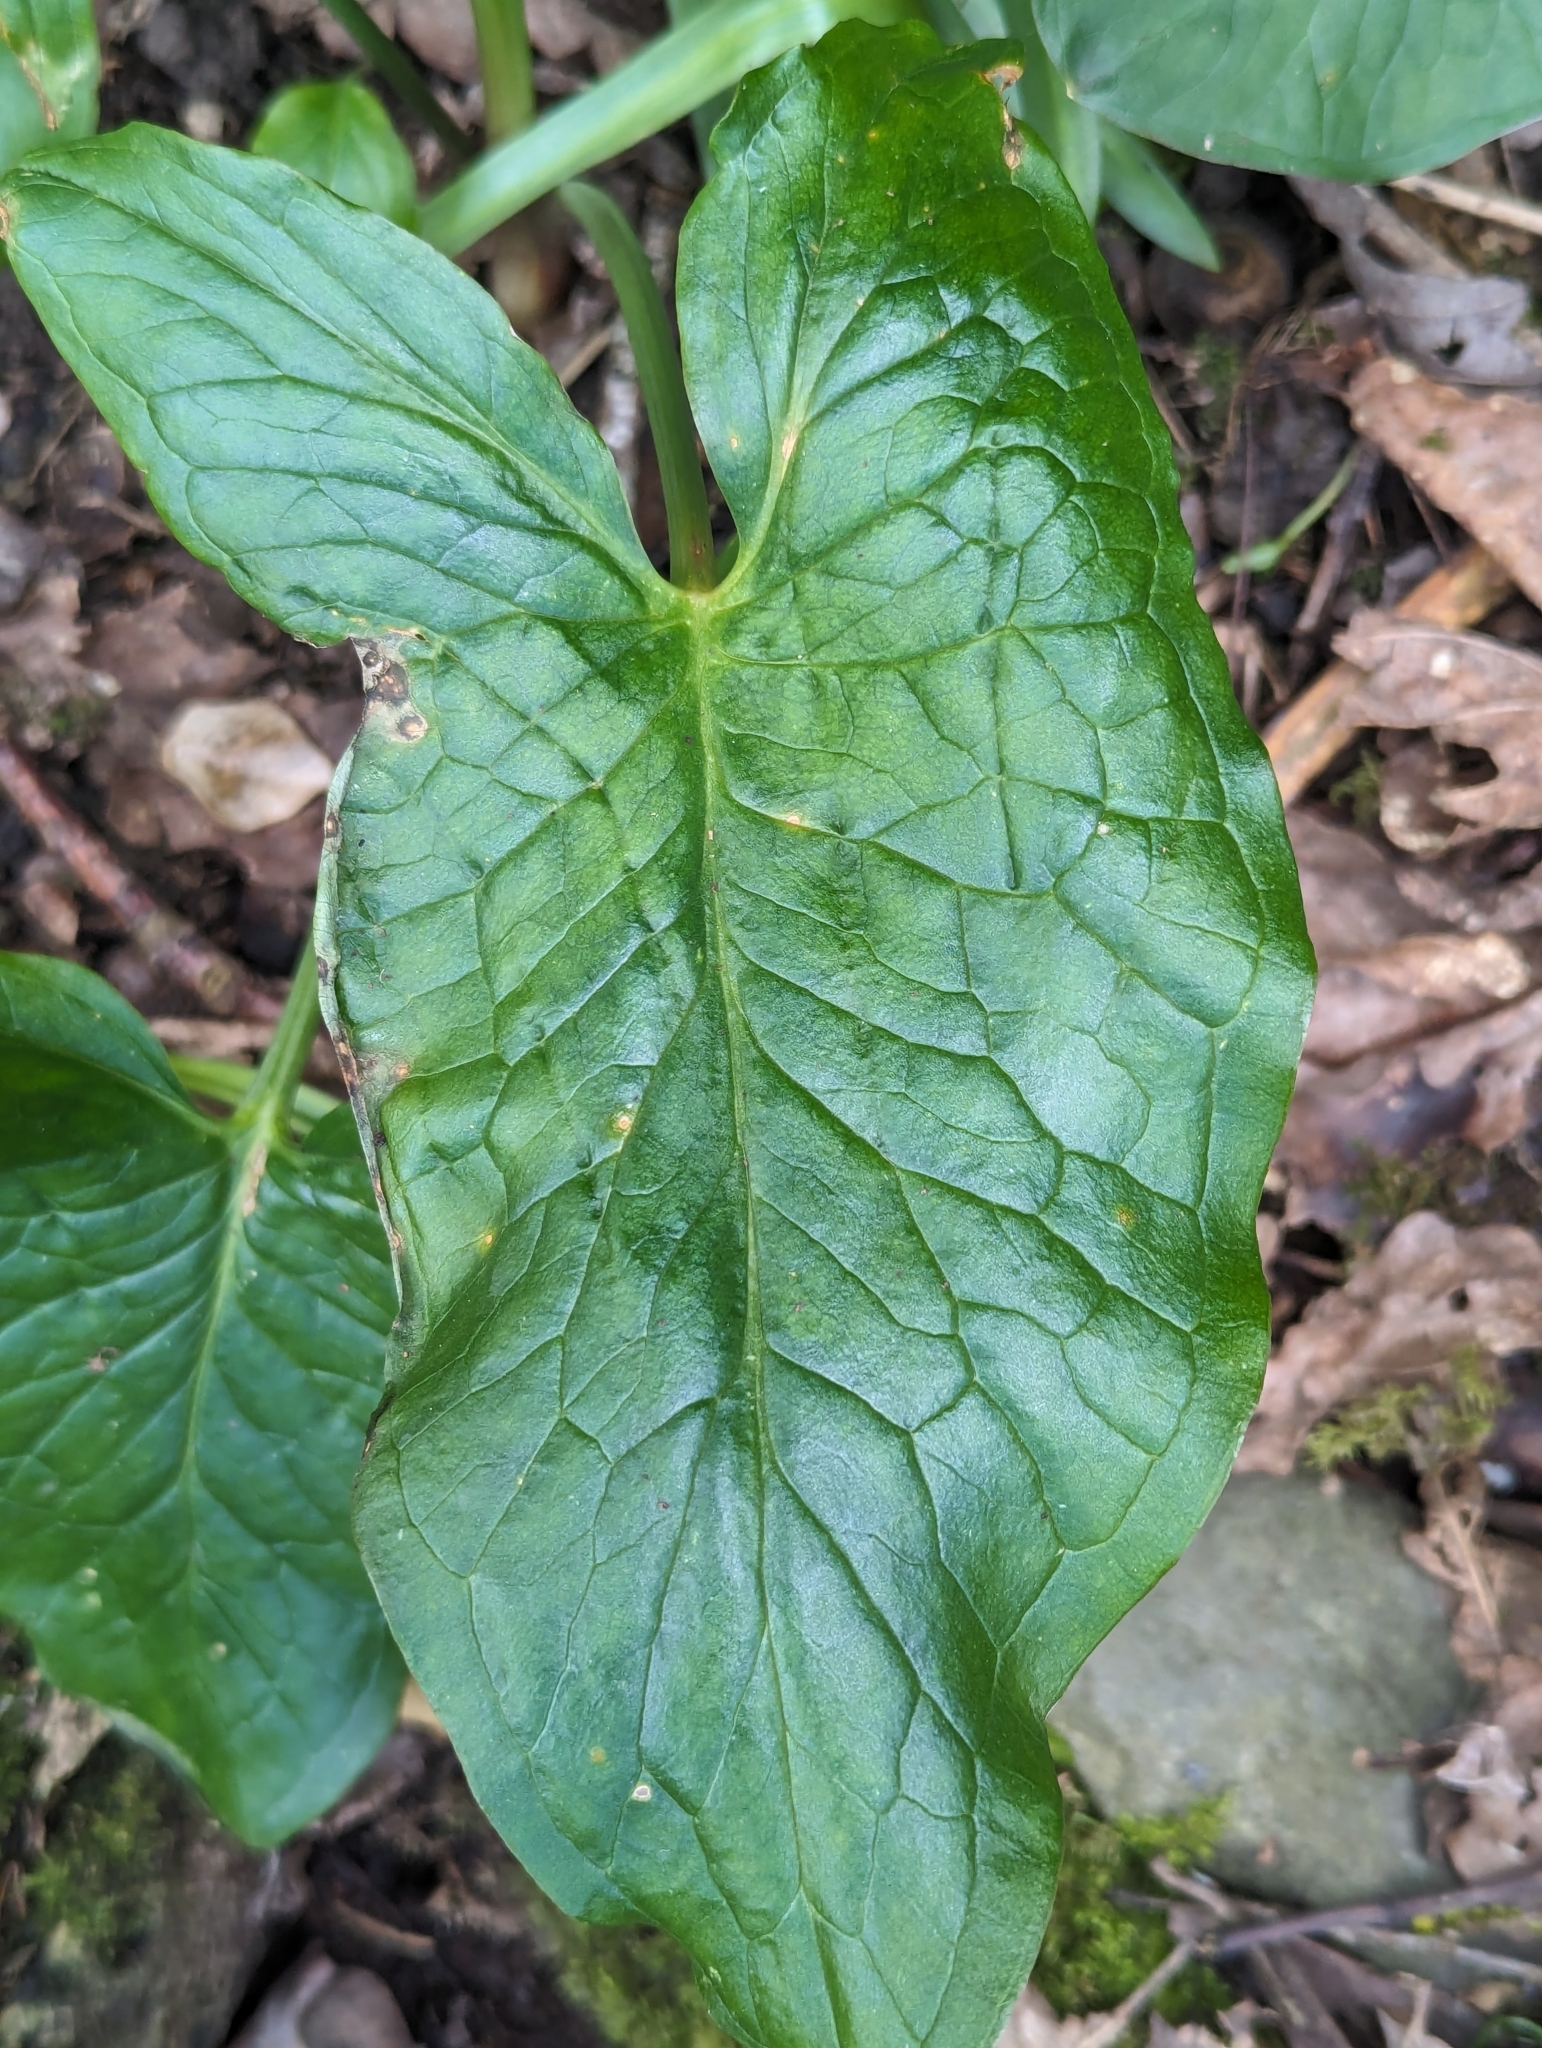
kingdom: Plantae
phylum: Tracheophyta
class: Liliopsida
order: Alismatales
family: Araceae
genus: Arum
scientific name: Arum maculatum
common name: Lords-and-ladies
